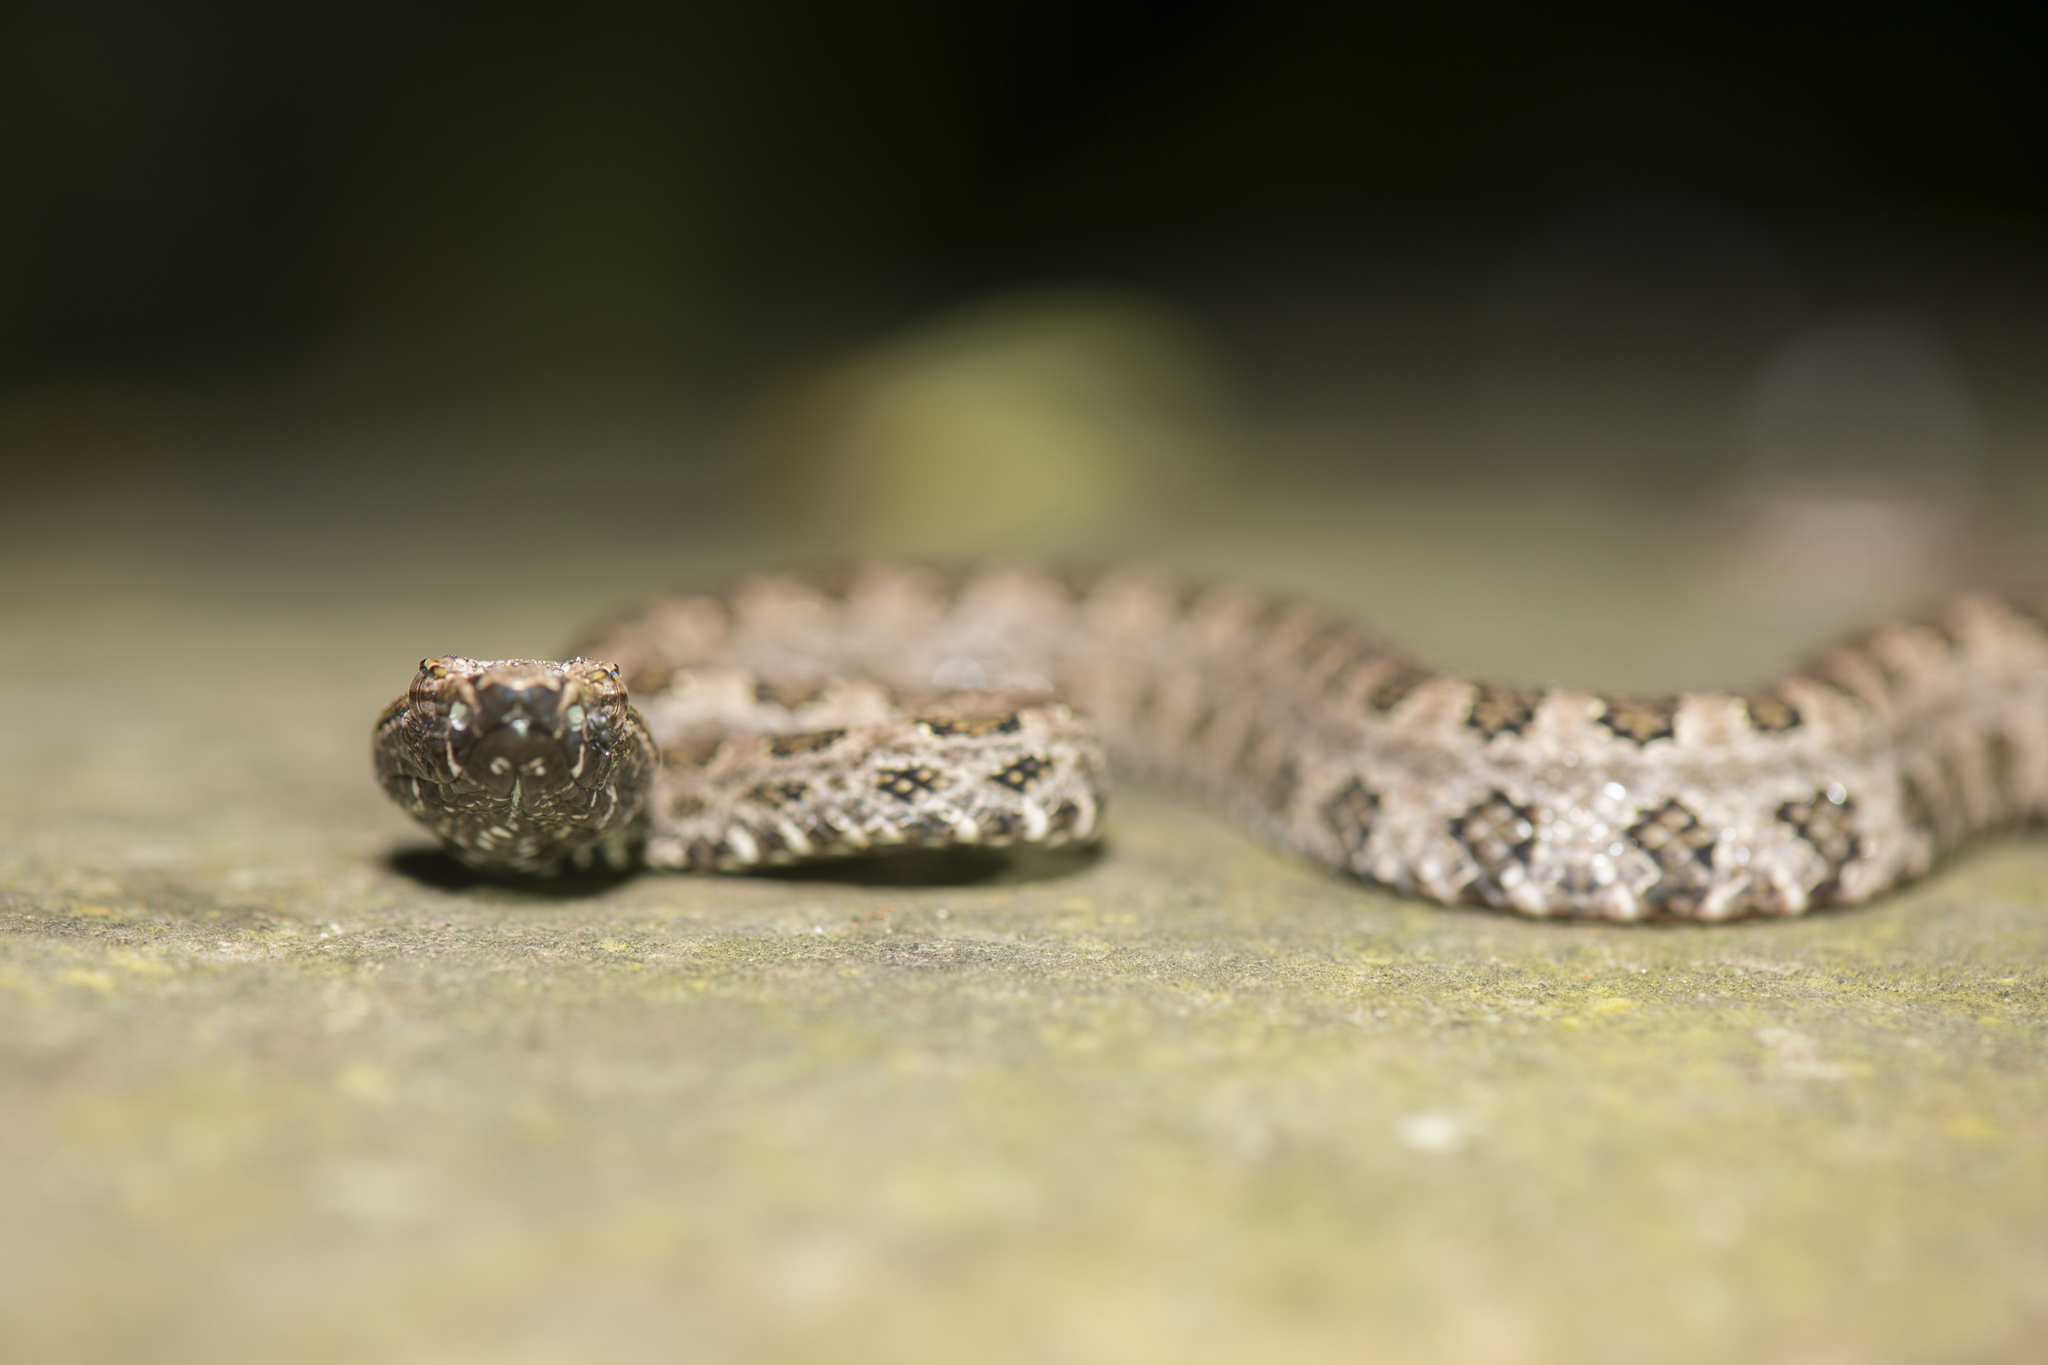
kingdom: Animalia
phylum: Chordata
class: Squamata
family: Viperidae
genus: Protobothrops
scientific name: Protobothrops mucrosquamatus
